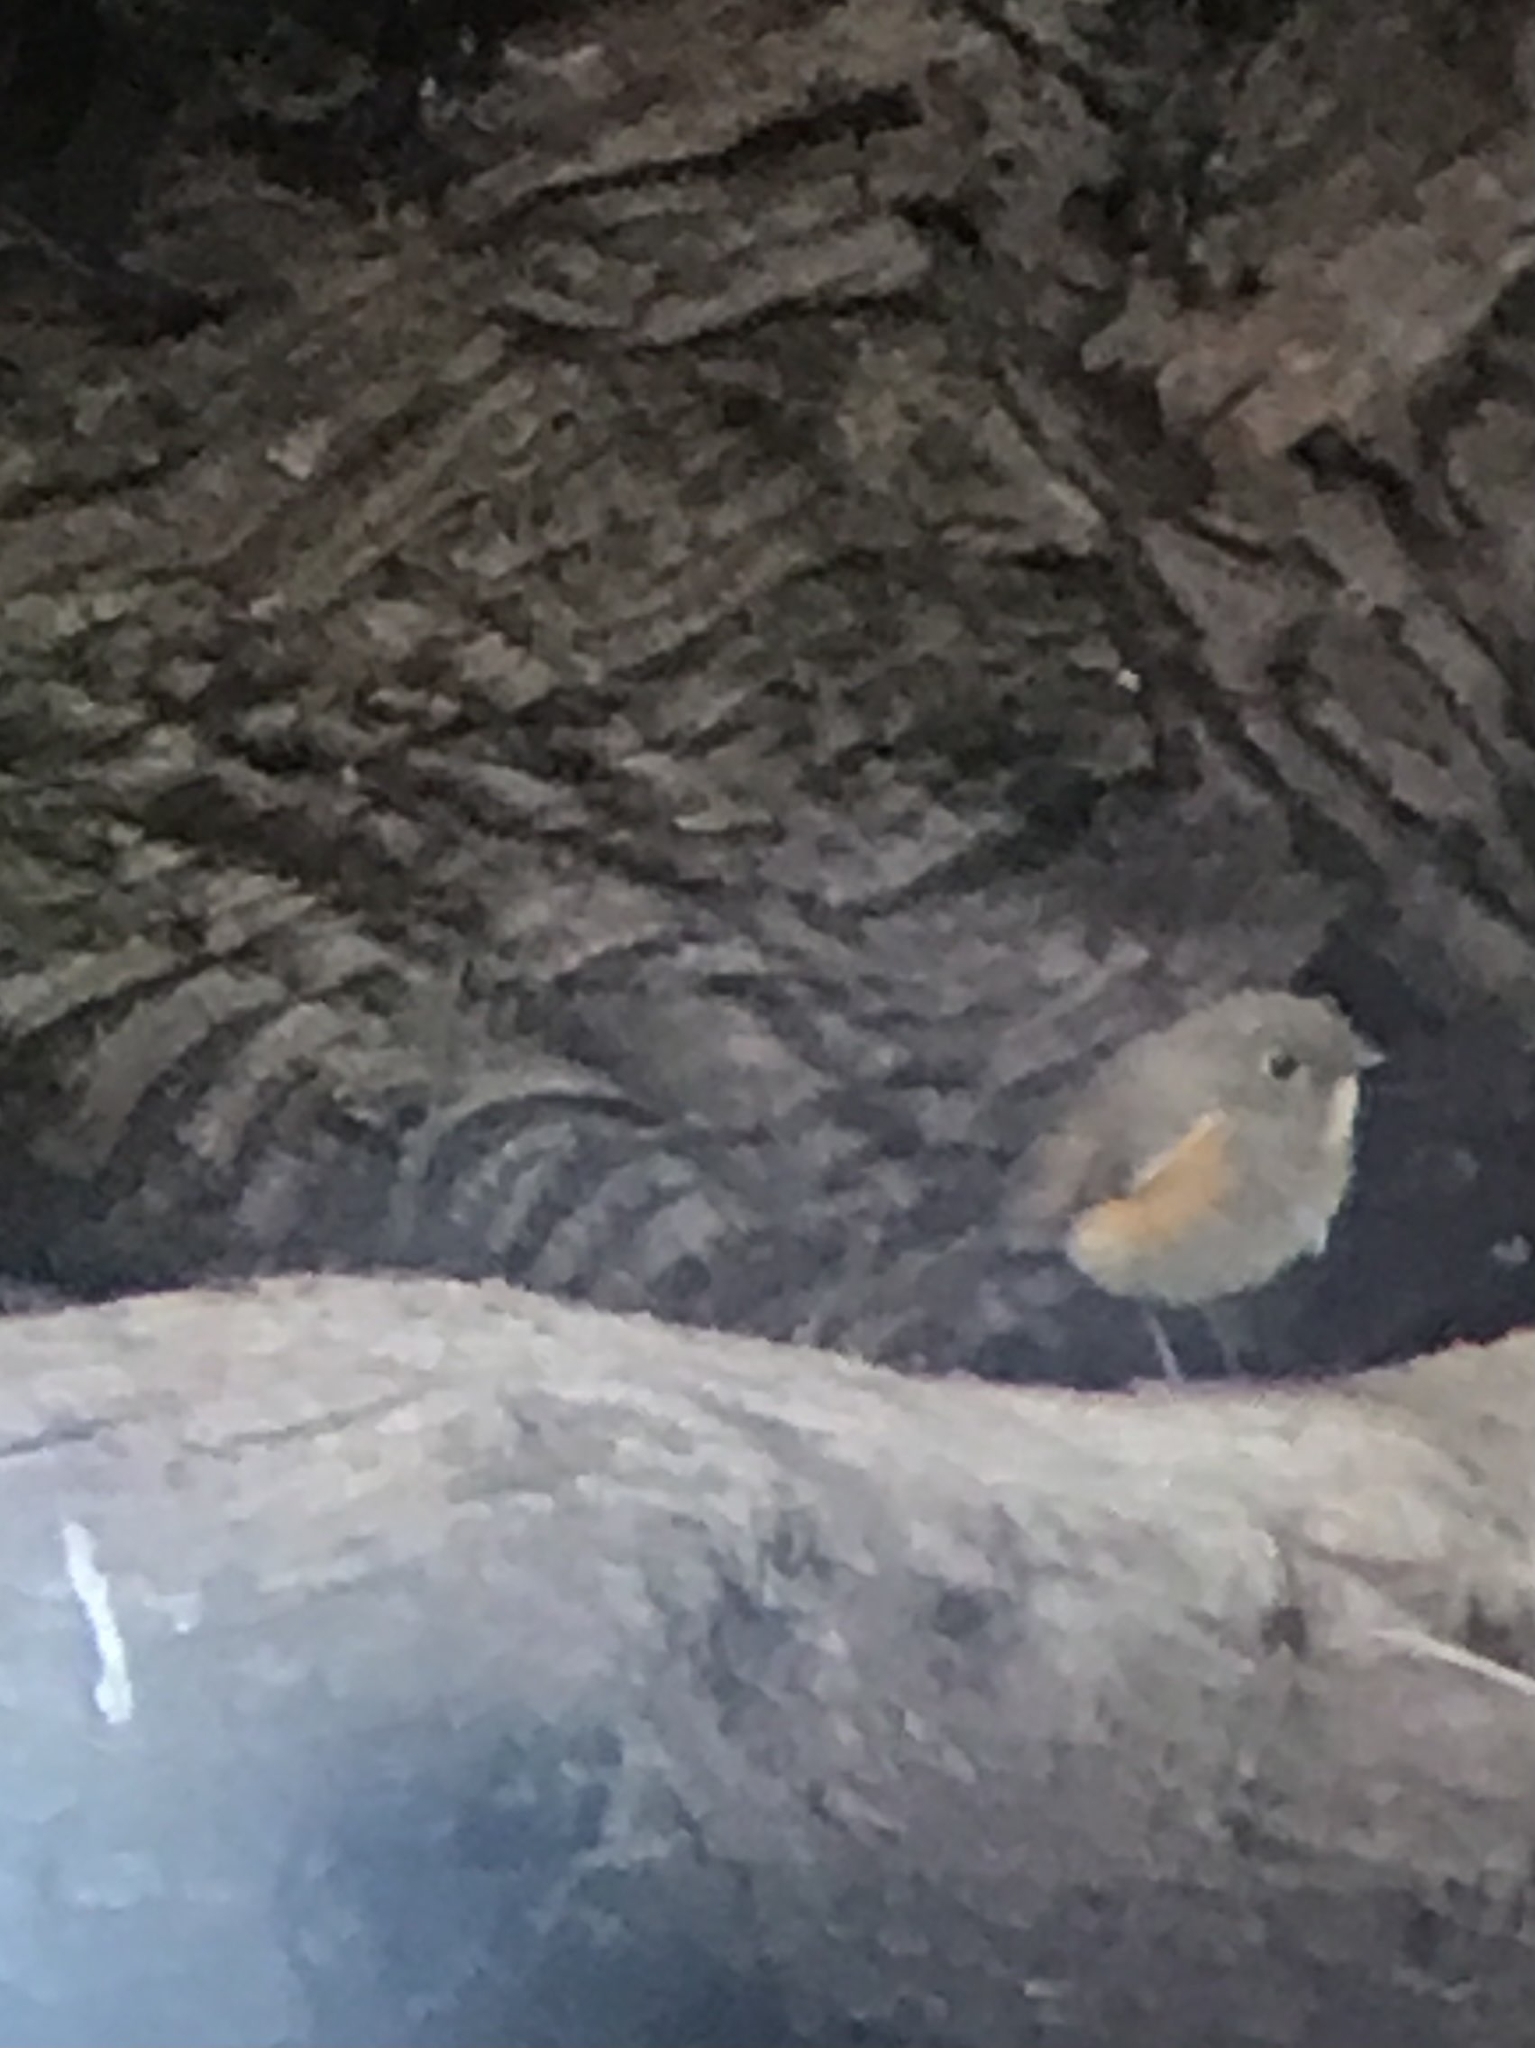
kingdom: Animalia
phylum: Chordata
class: Aves
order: Passeriformes
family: Muscicapidae
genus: Tarsiger
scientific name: Tarsiger cyanurus
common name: Red-flanked bluetail
